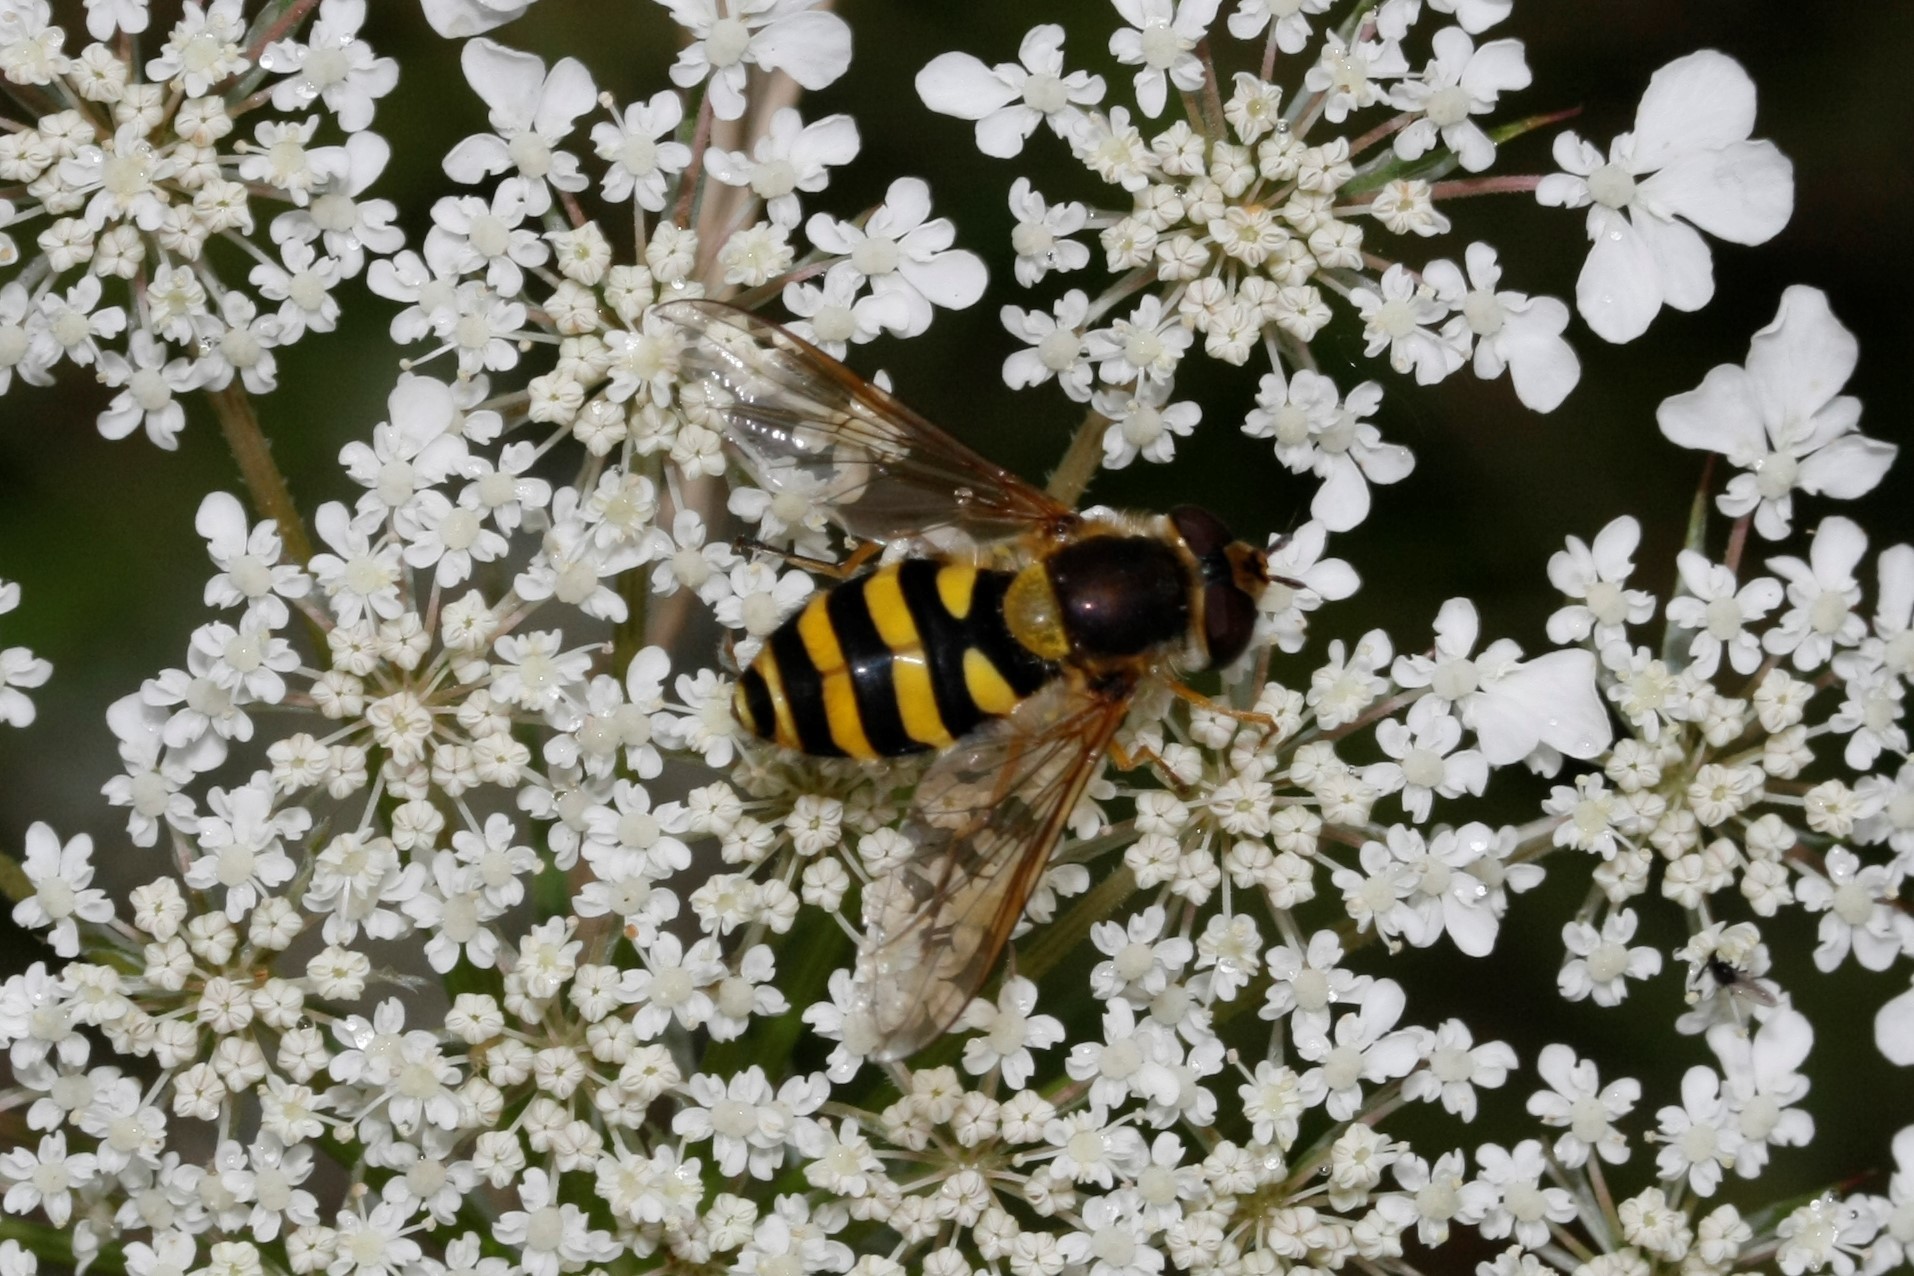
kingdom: Animalia
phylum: Arthropoda
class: Insecta
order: Diptera
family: Syrphidae
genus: Syrphus
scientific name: Syrphus
